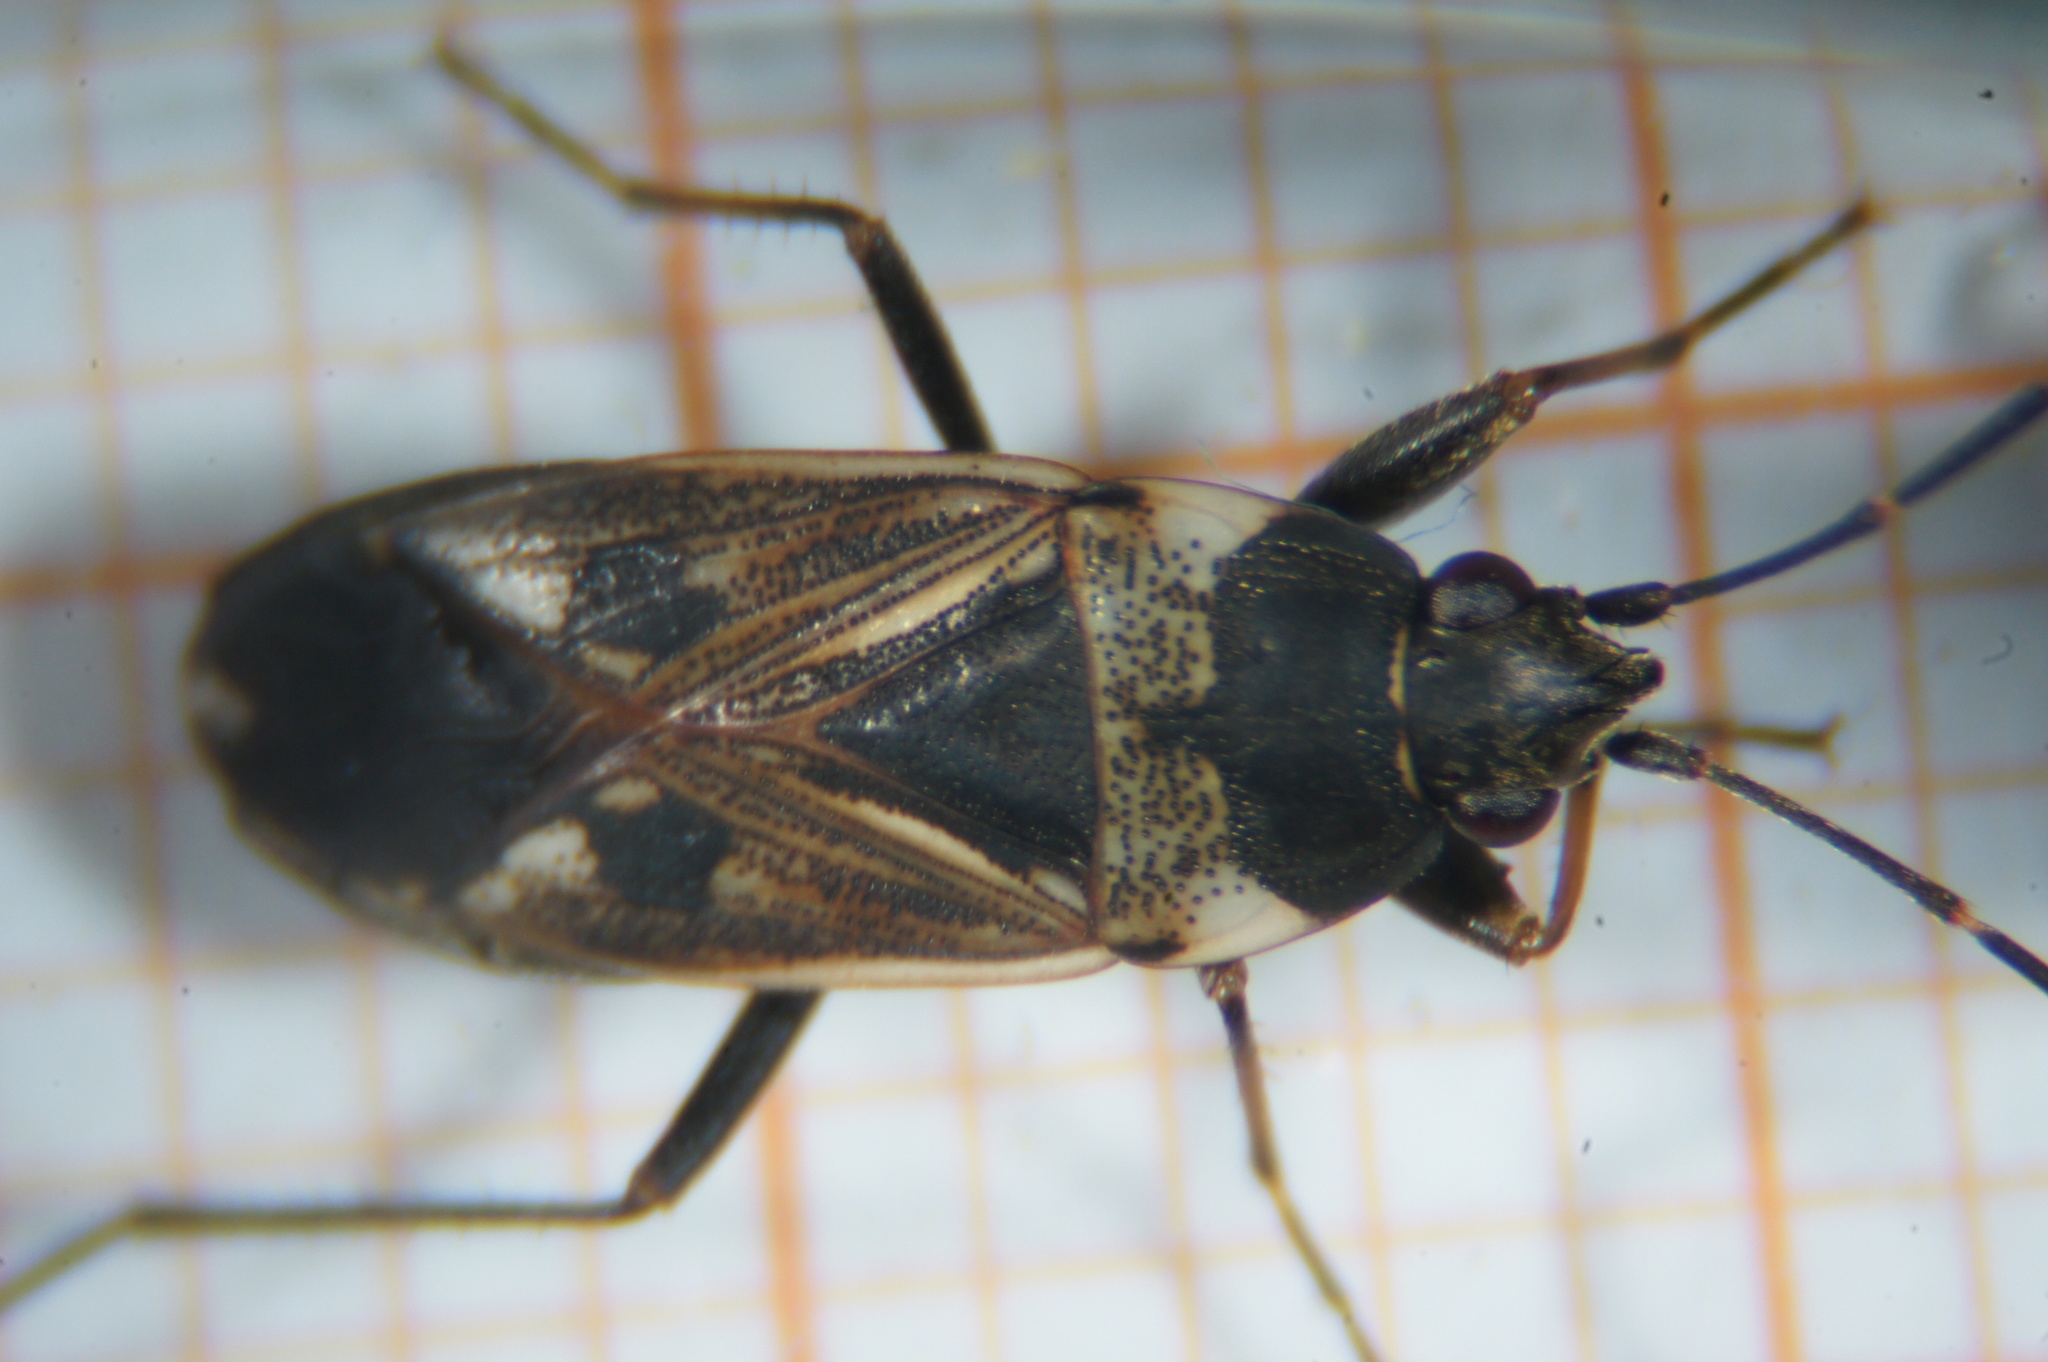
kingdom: Animalia
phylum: Arthropoda
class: Insecta
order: Hemiptera
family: Rhyparochromidae
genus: Rhyparochromus
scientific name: Rhyparochromus vulgaris
